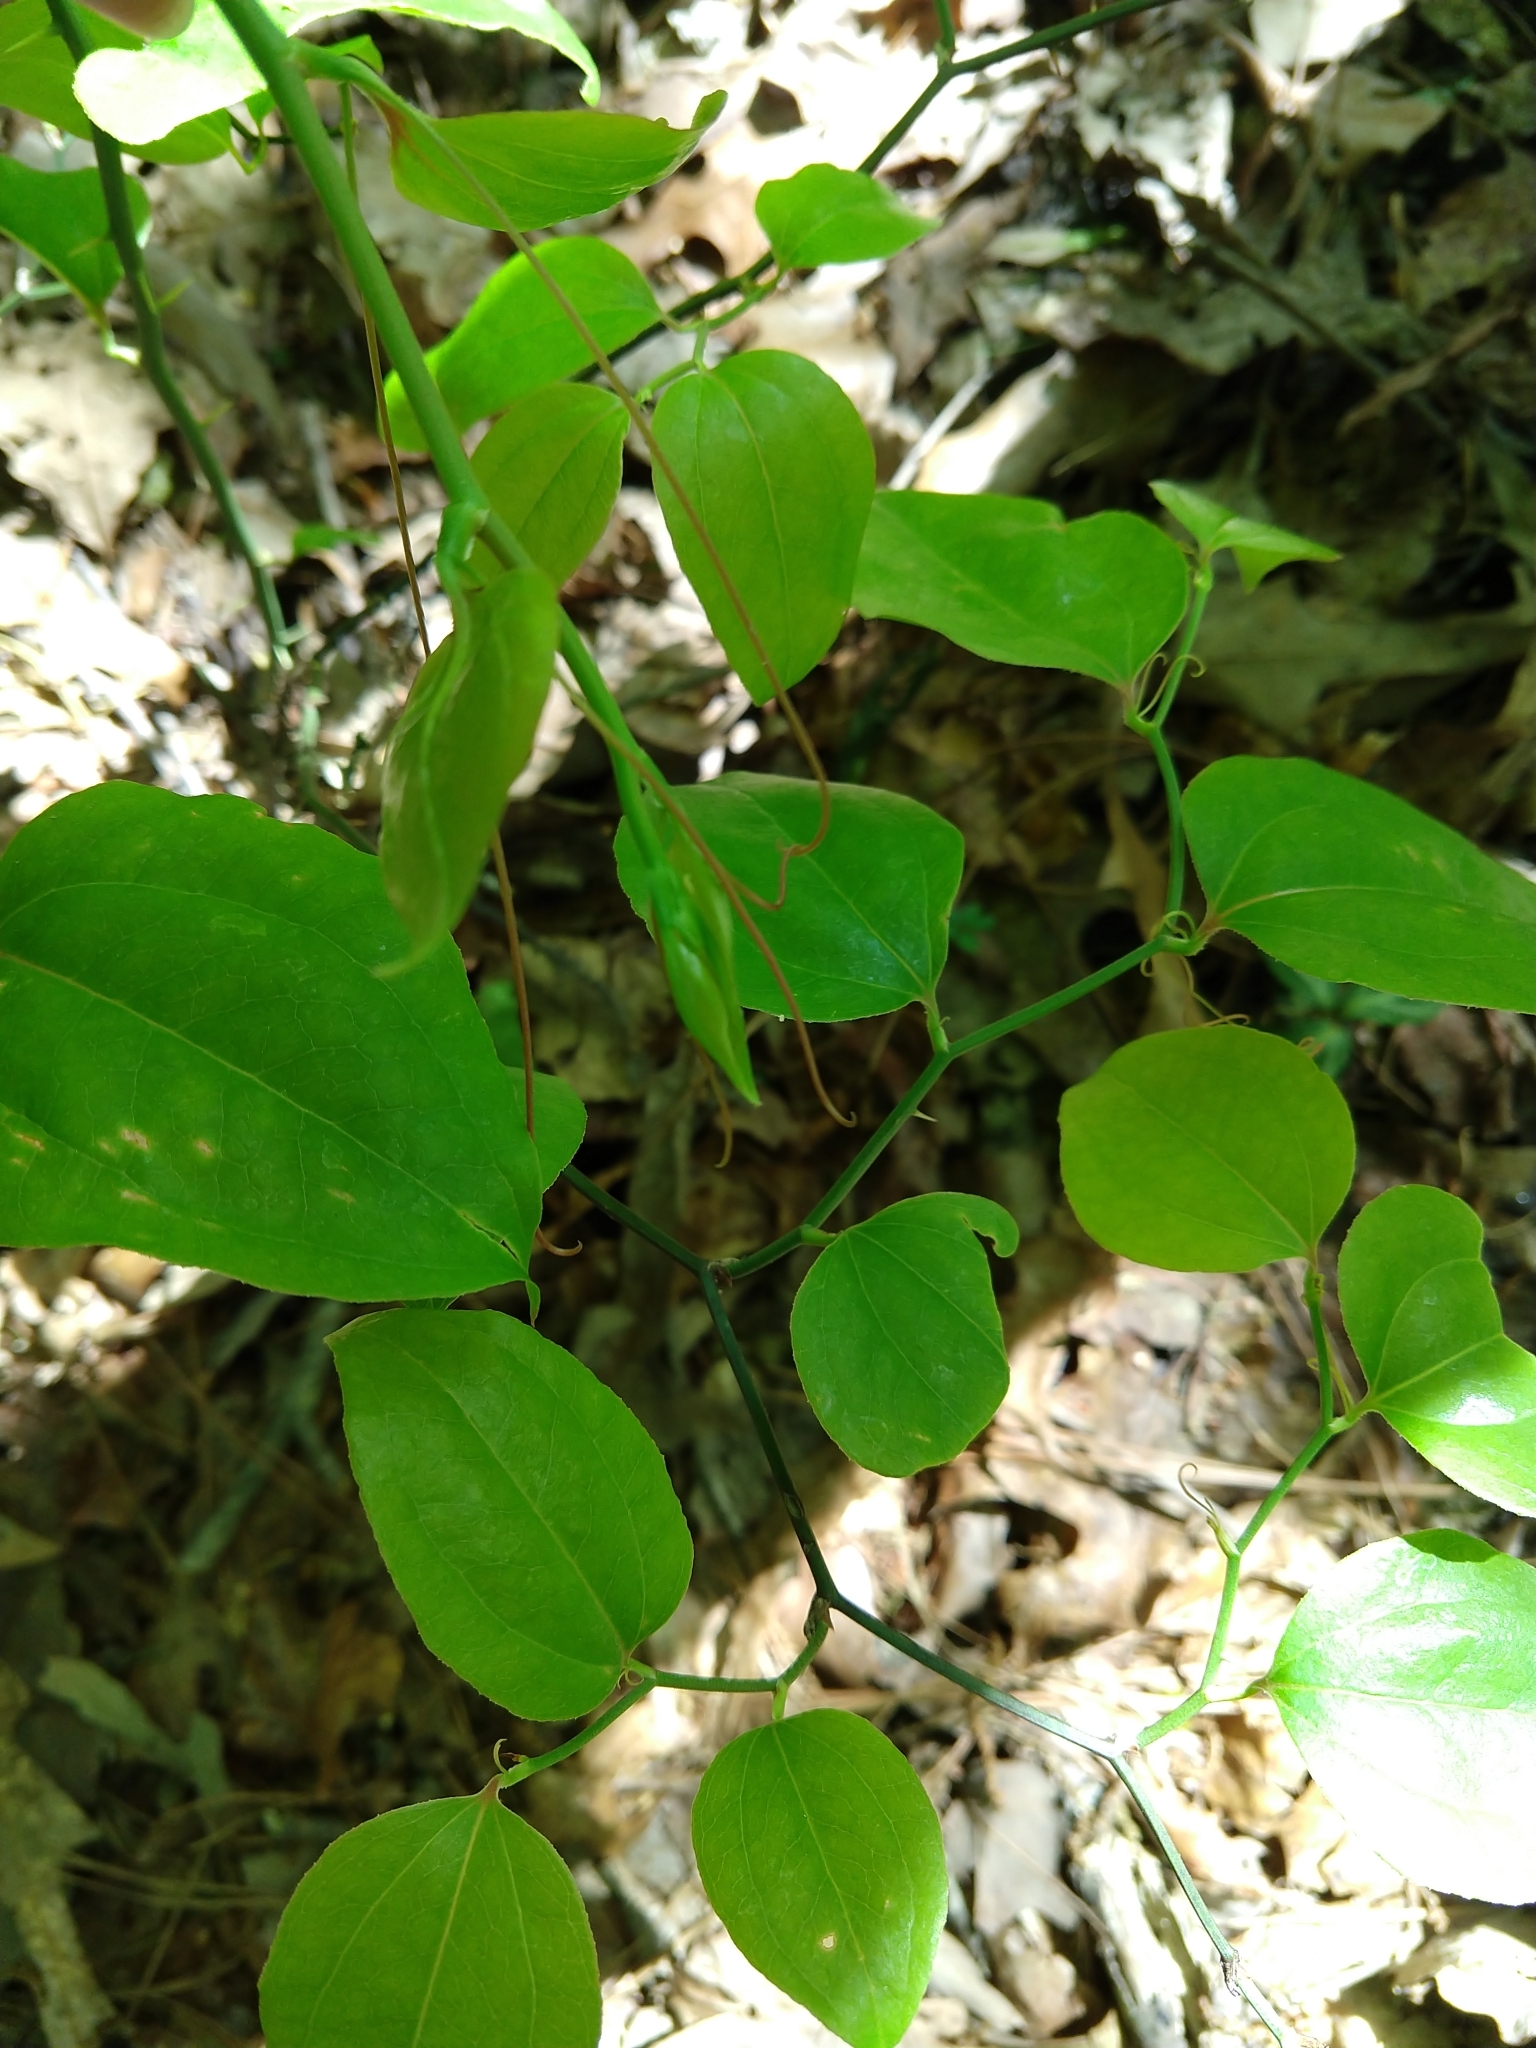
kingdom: Plantae
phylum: Tracheophyta
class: Liliopsida
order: Liliales
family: Smilacaceae
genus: Smilax
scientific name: Smilax rotundifolia
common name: Bullbriar
